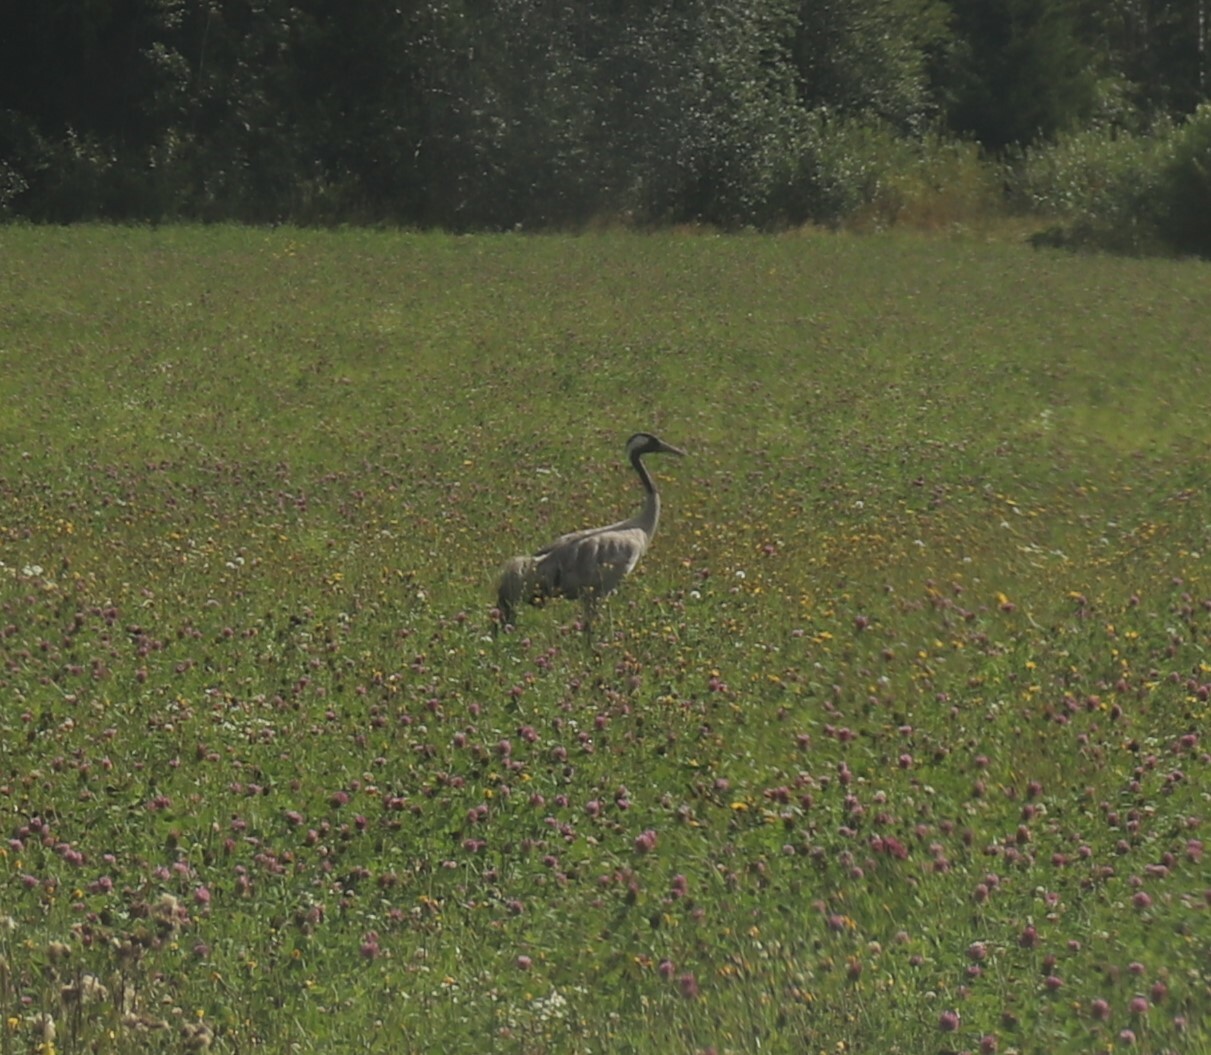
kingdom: Animalia
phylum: Chordata
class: Aves
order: Gruiformes
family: Gruidae
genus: Grus
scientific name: Grus grus
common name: Common crane
